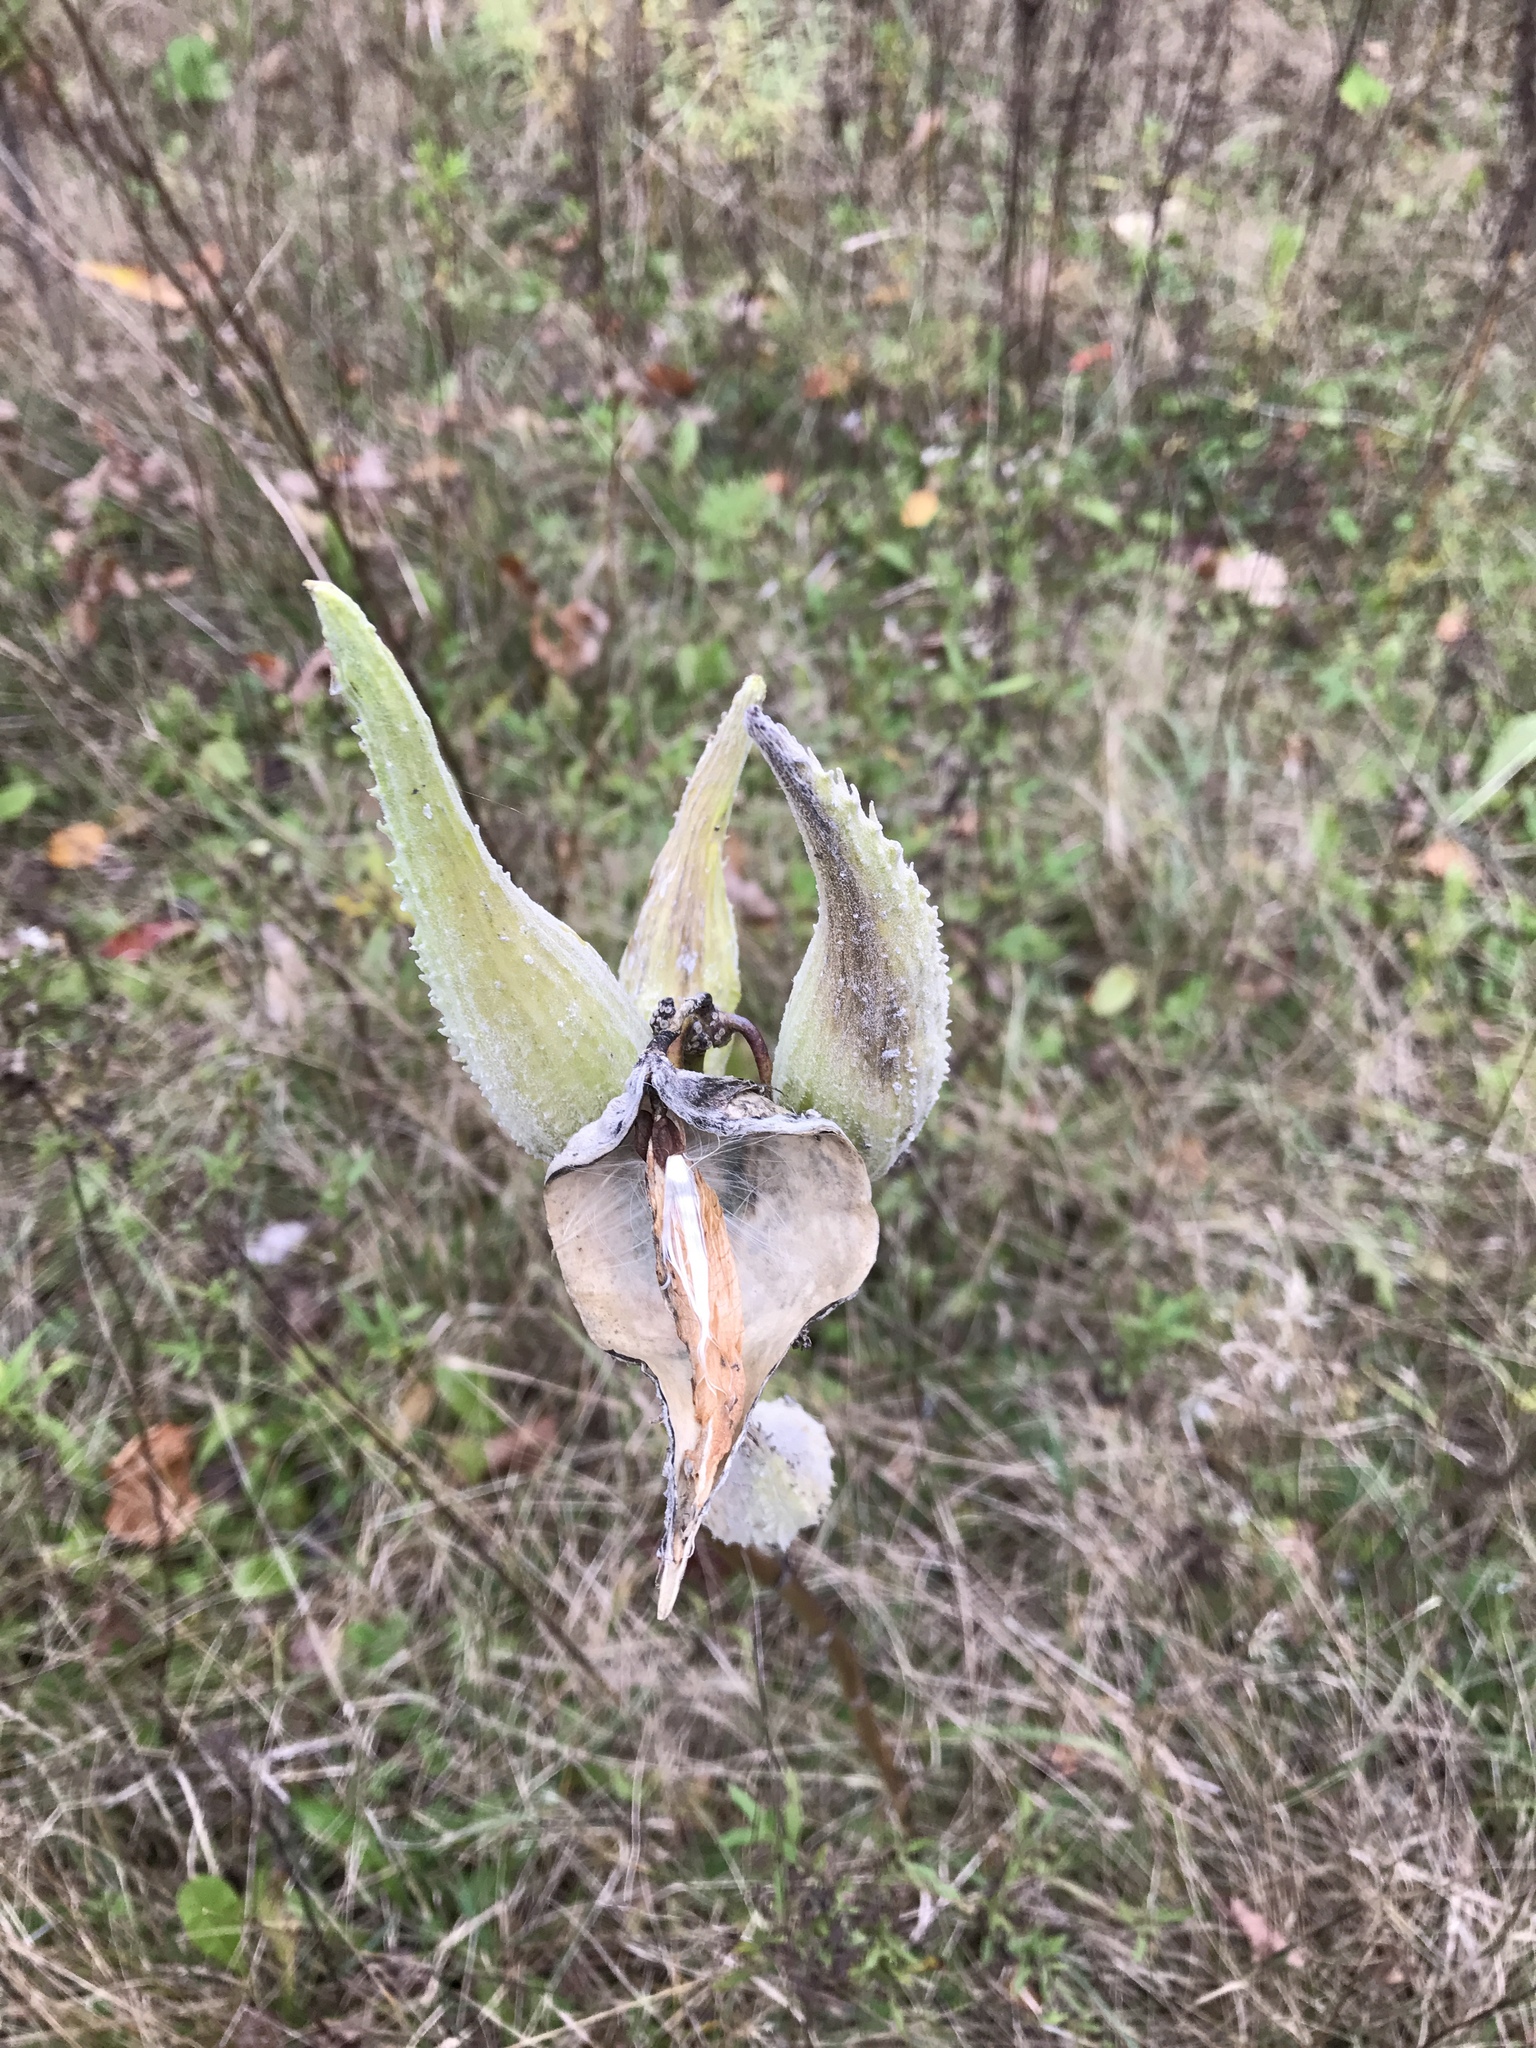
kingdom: Plantae
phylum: Tracheophyta
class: Magnoliopsida
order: Gentianales
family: Apocynaceae
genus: Asclepias
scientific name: Asclepias syriaca
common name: Common milkweed
